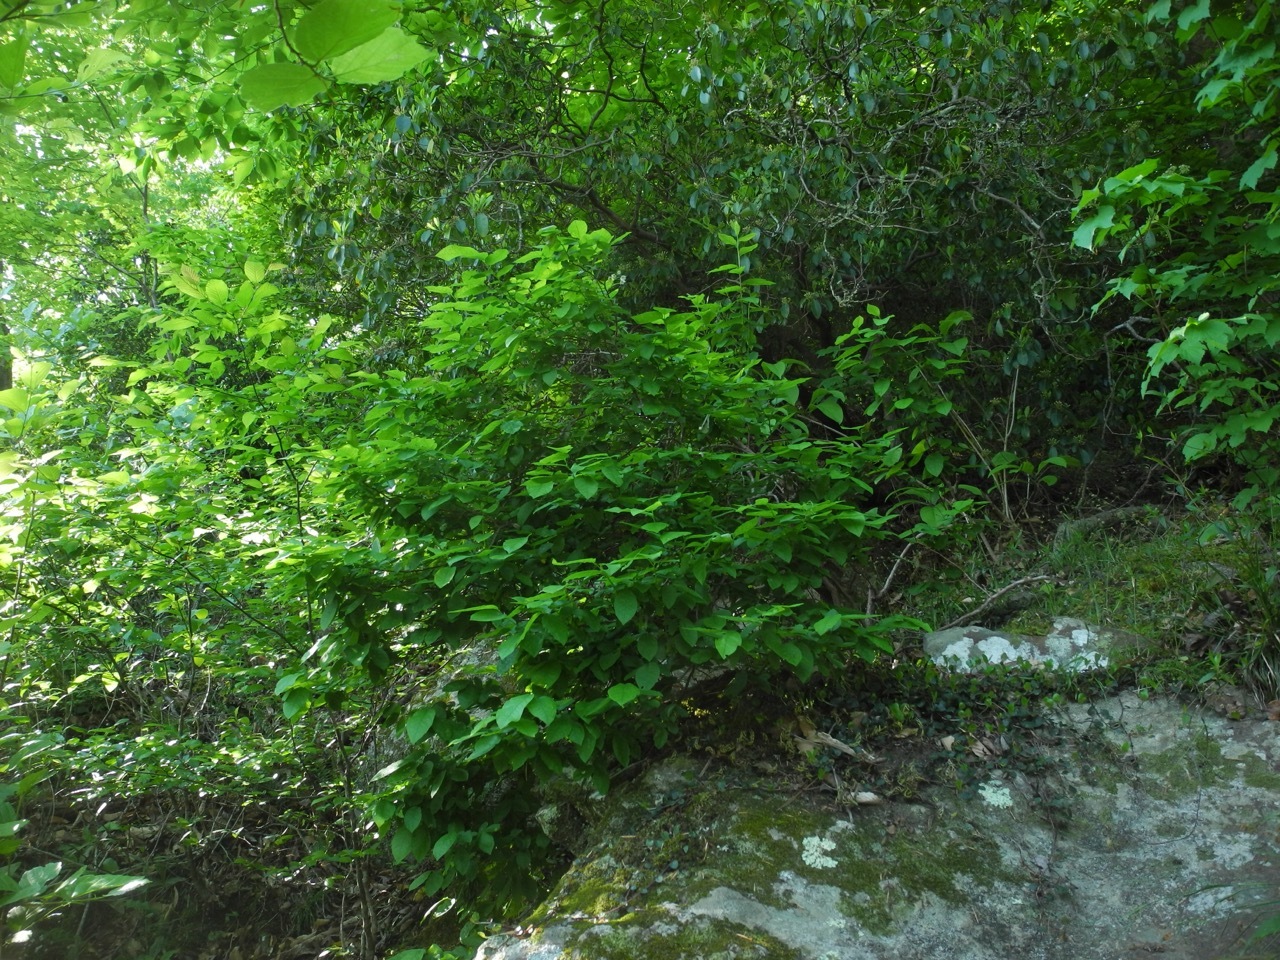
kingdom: Plantae
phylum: Tracheophyta
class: Magnoliopsida
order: Ericales
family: Ericaceae
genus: Vaccinium
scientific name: Vaccinium stamineum
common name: Deerberry
